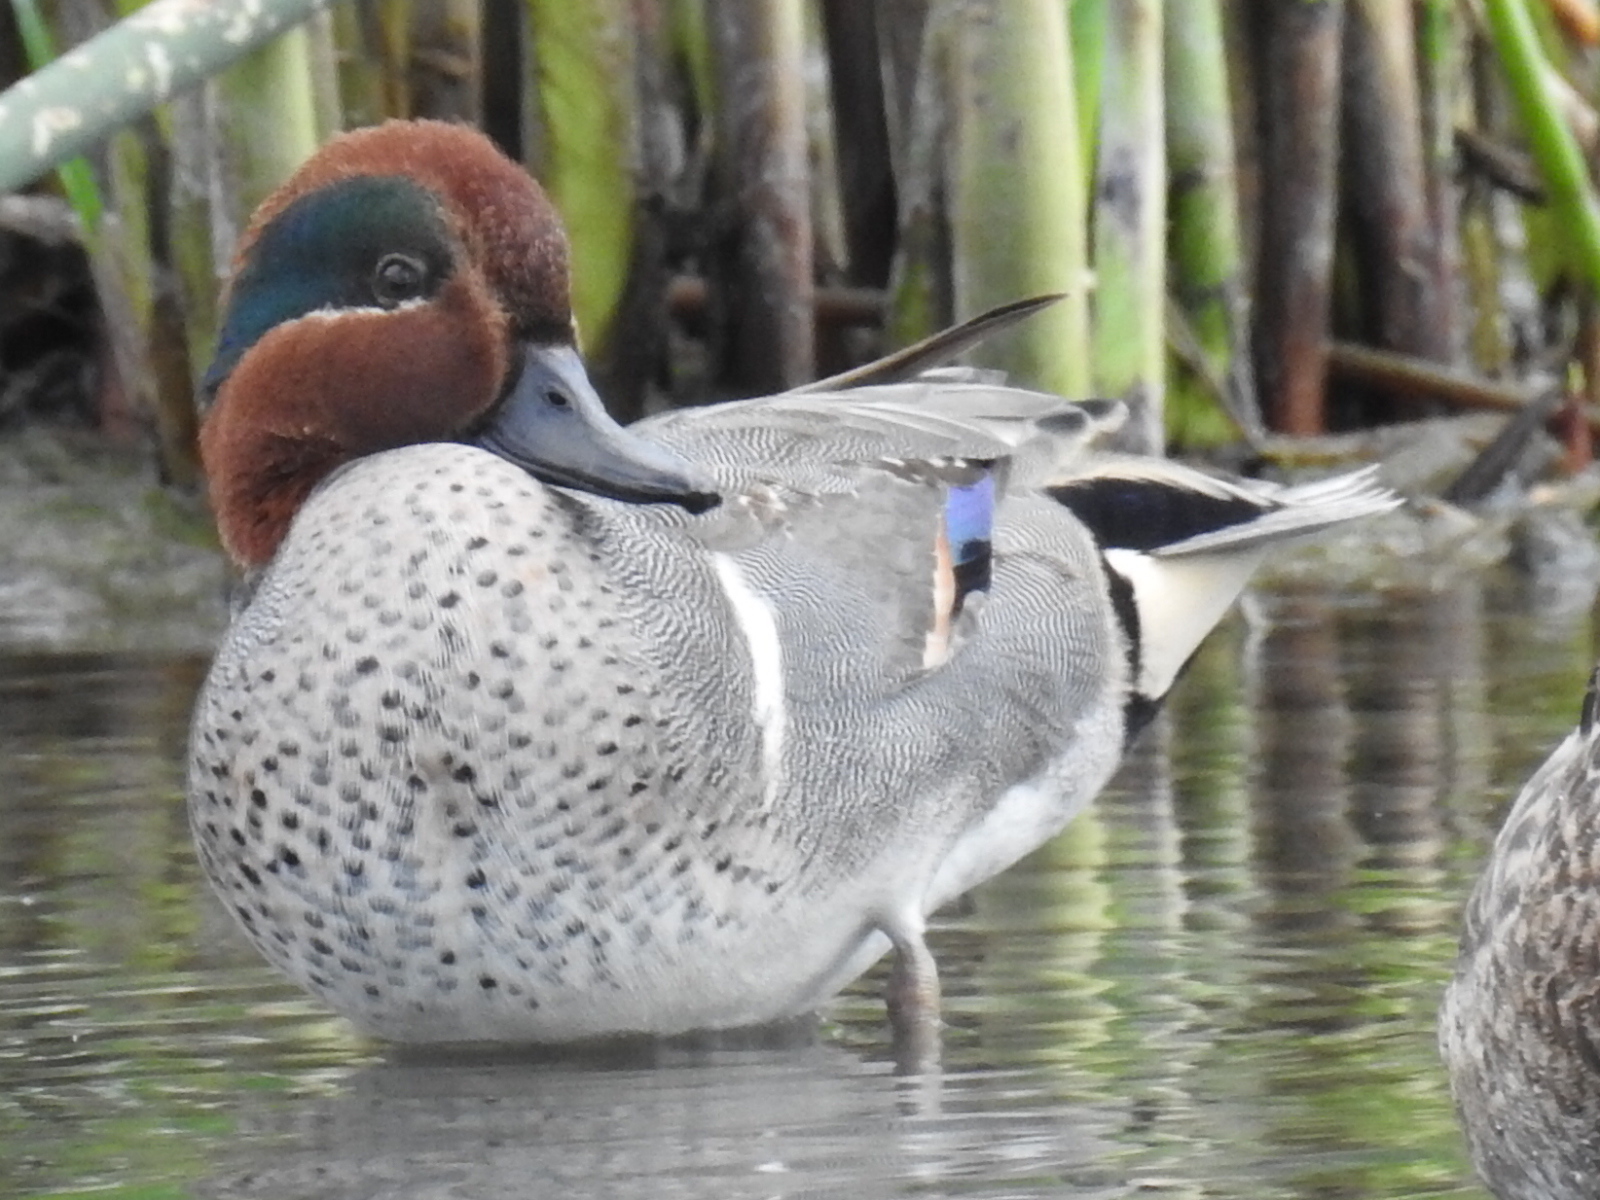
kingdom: Animalia
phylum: Chordata
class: Aves
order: Anseriformes
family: Anatidae
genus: Anas
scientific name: Anas crecca
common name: Eurasian teal
